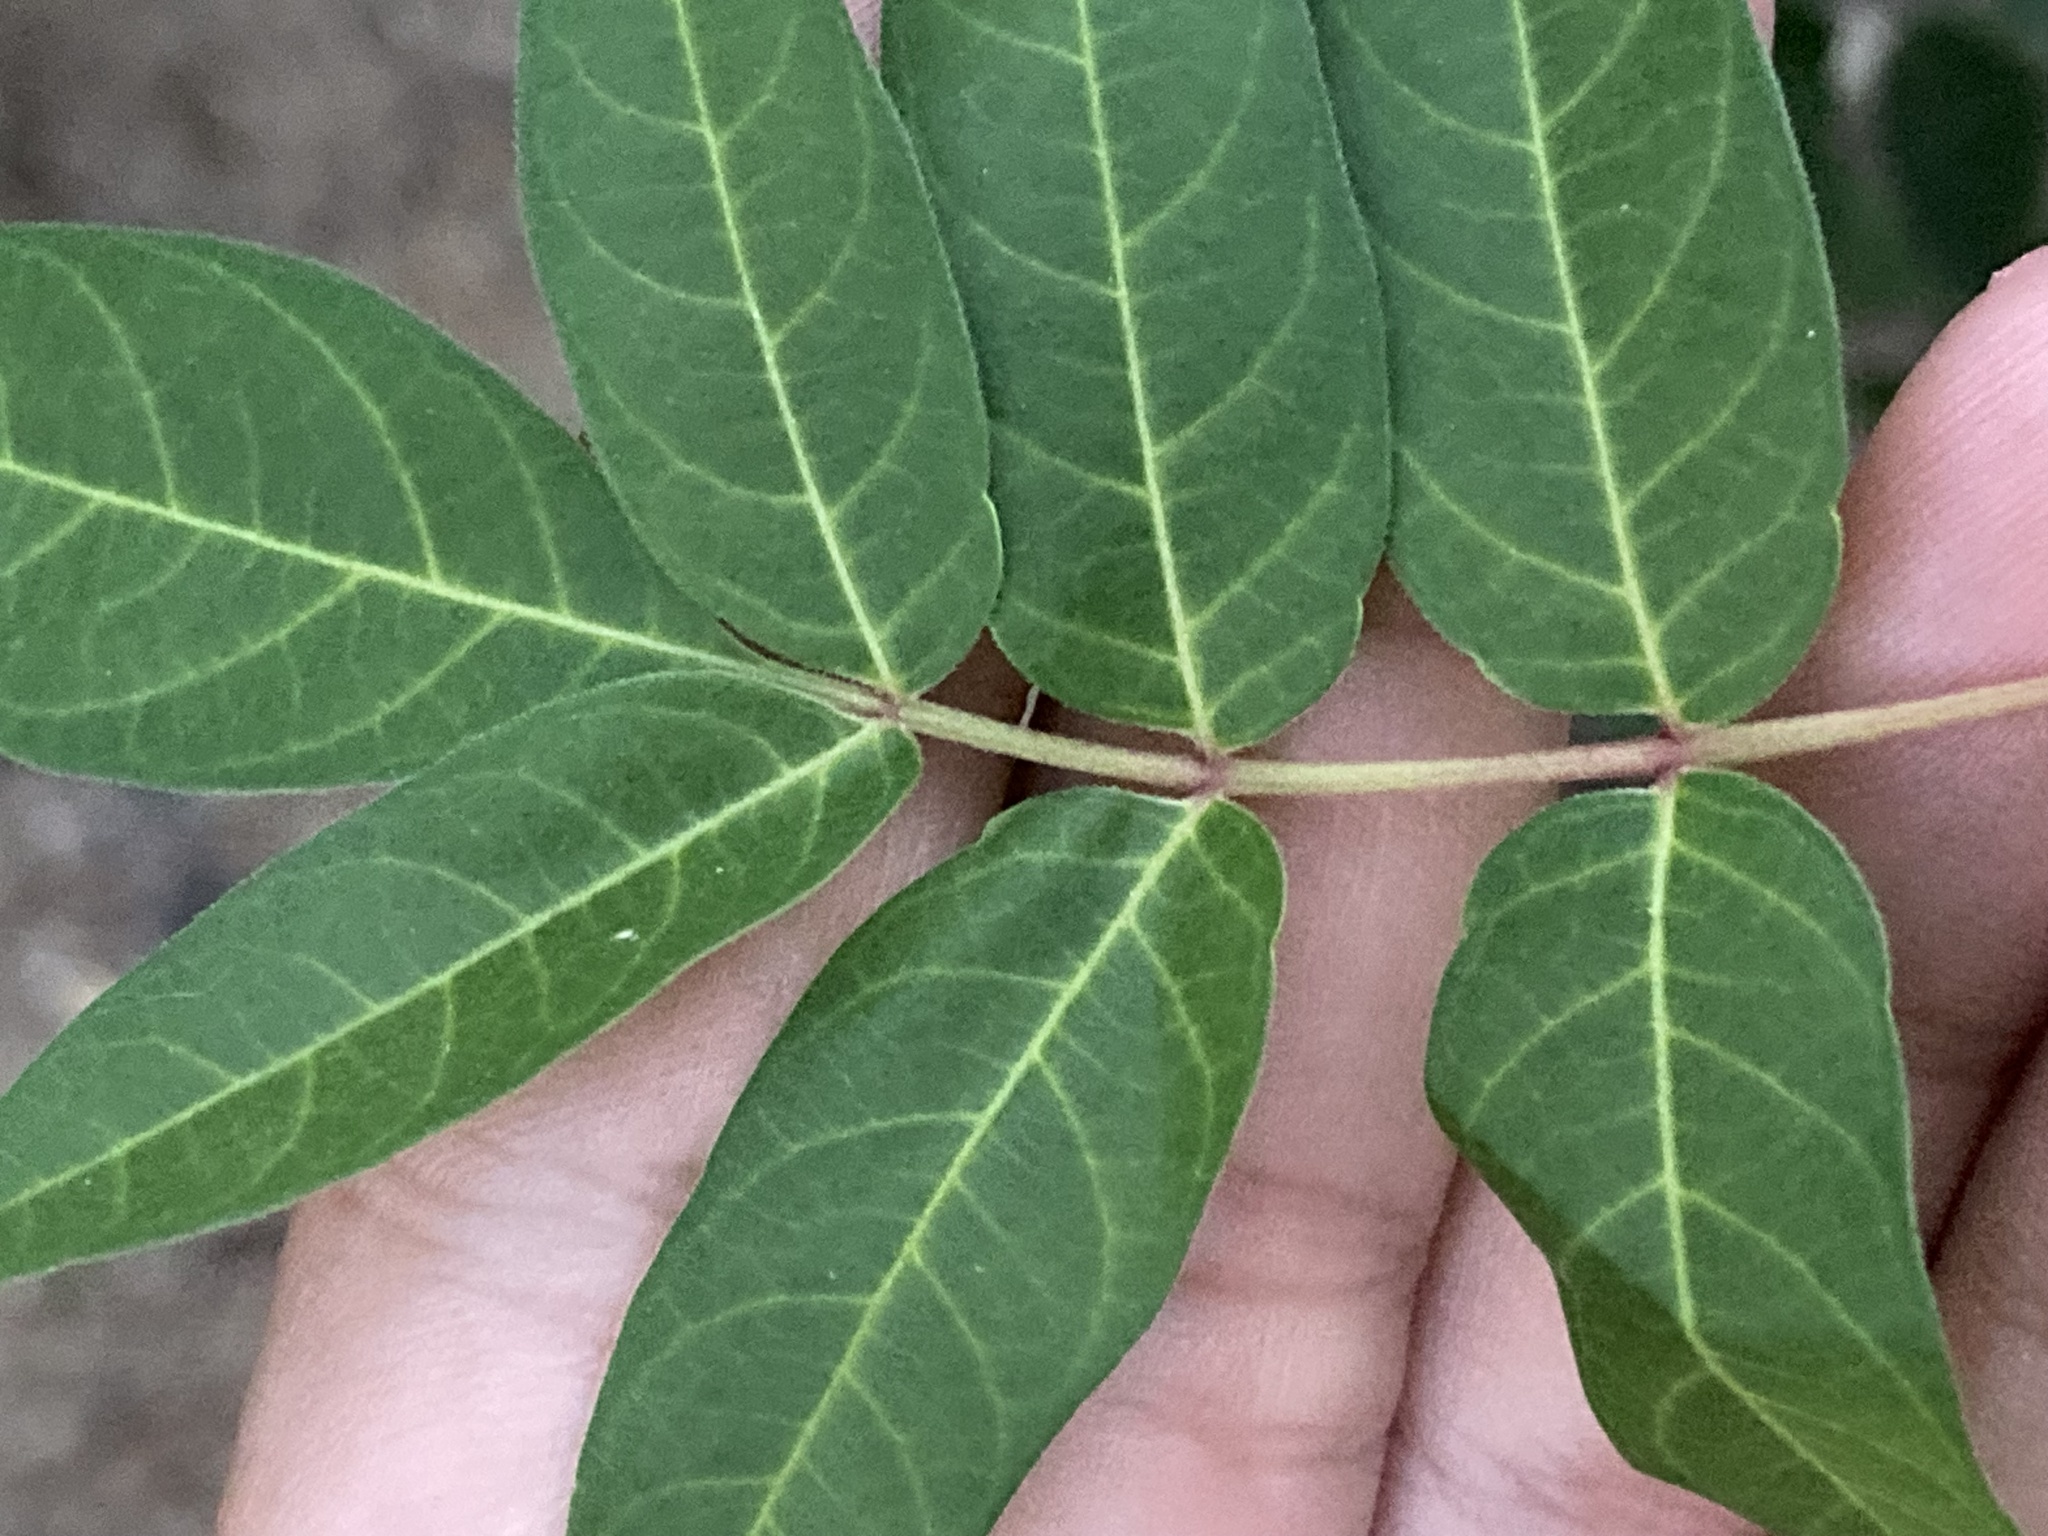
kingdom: Plantae
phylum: Tracheophyta
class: Magnoliopsida
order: Sapindales
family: Simaroubaceae
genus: Ailanthus
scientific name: Ailanthus altissima
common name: Tree-of-heaven
